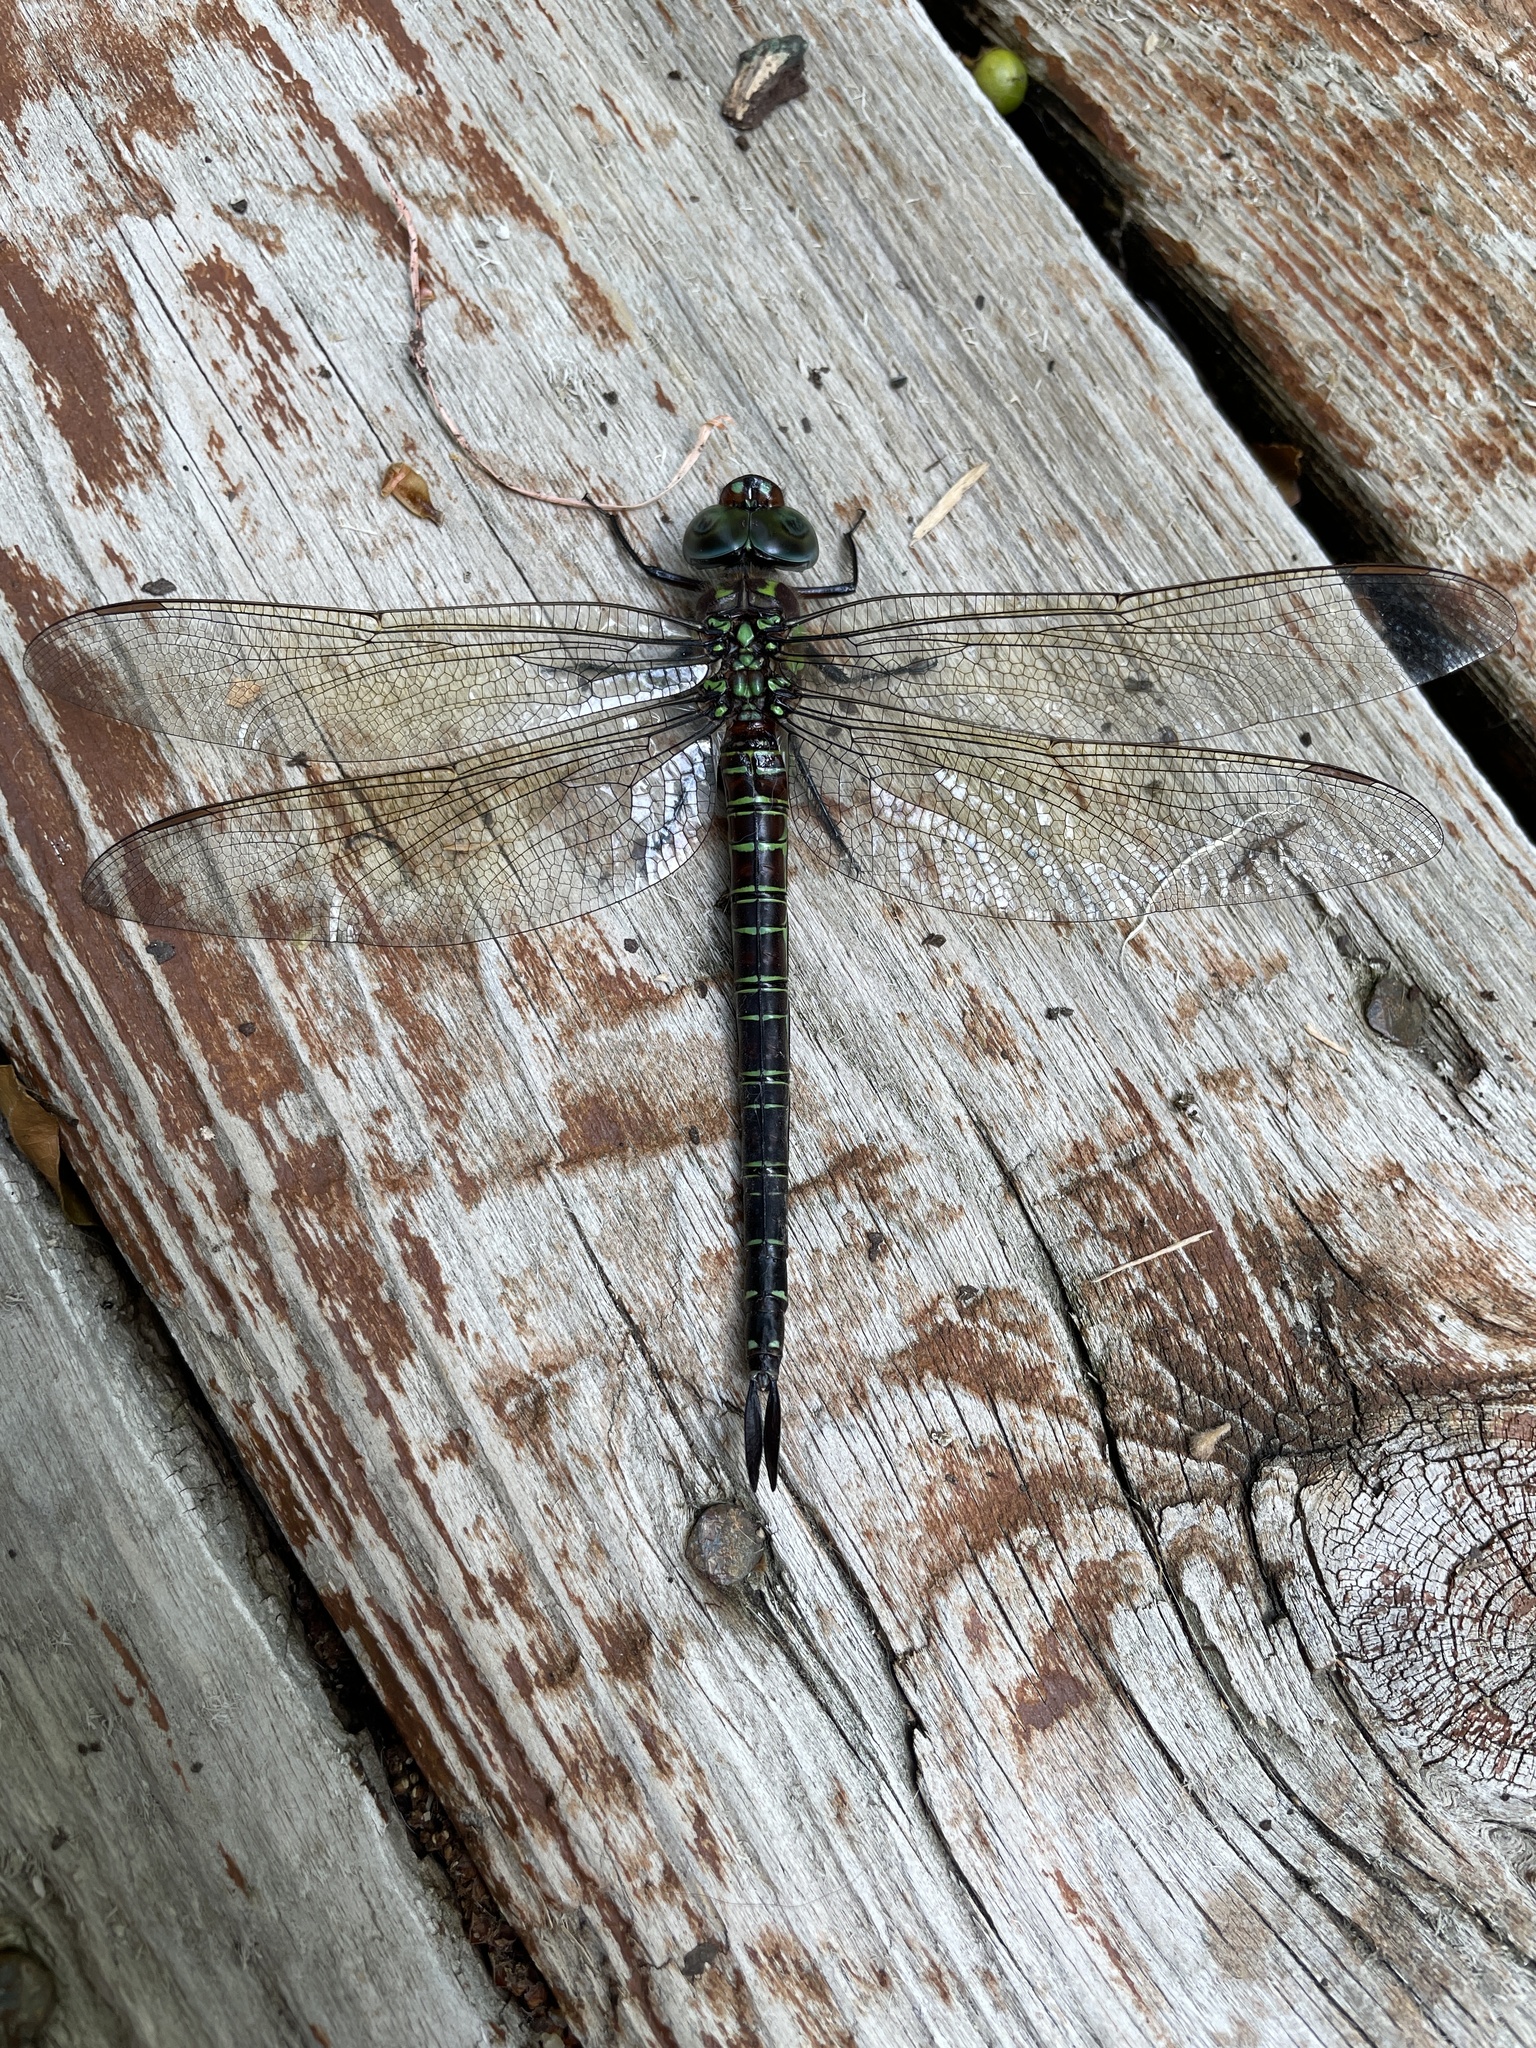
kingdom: Animalia
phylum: Arthropoda
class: Insecta
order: Odonata
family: Aeshnidae
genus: Epiaeschna
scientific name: Epiaeschna heros
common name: Swamp darner
